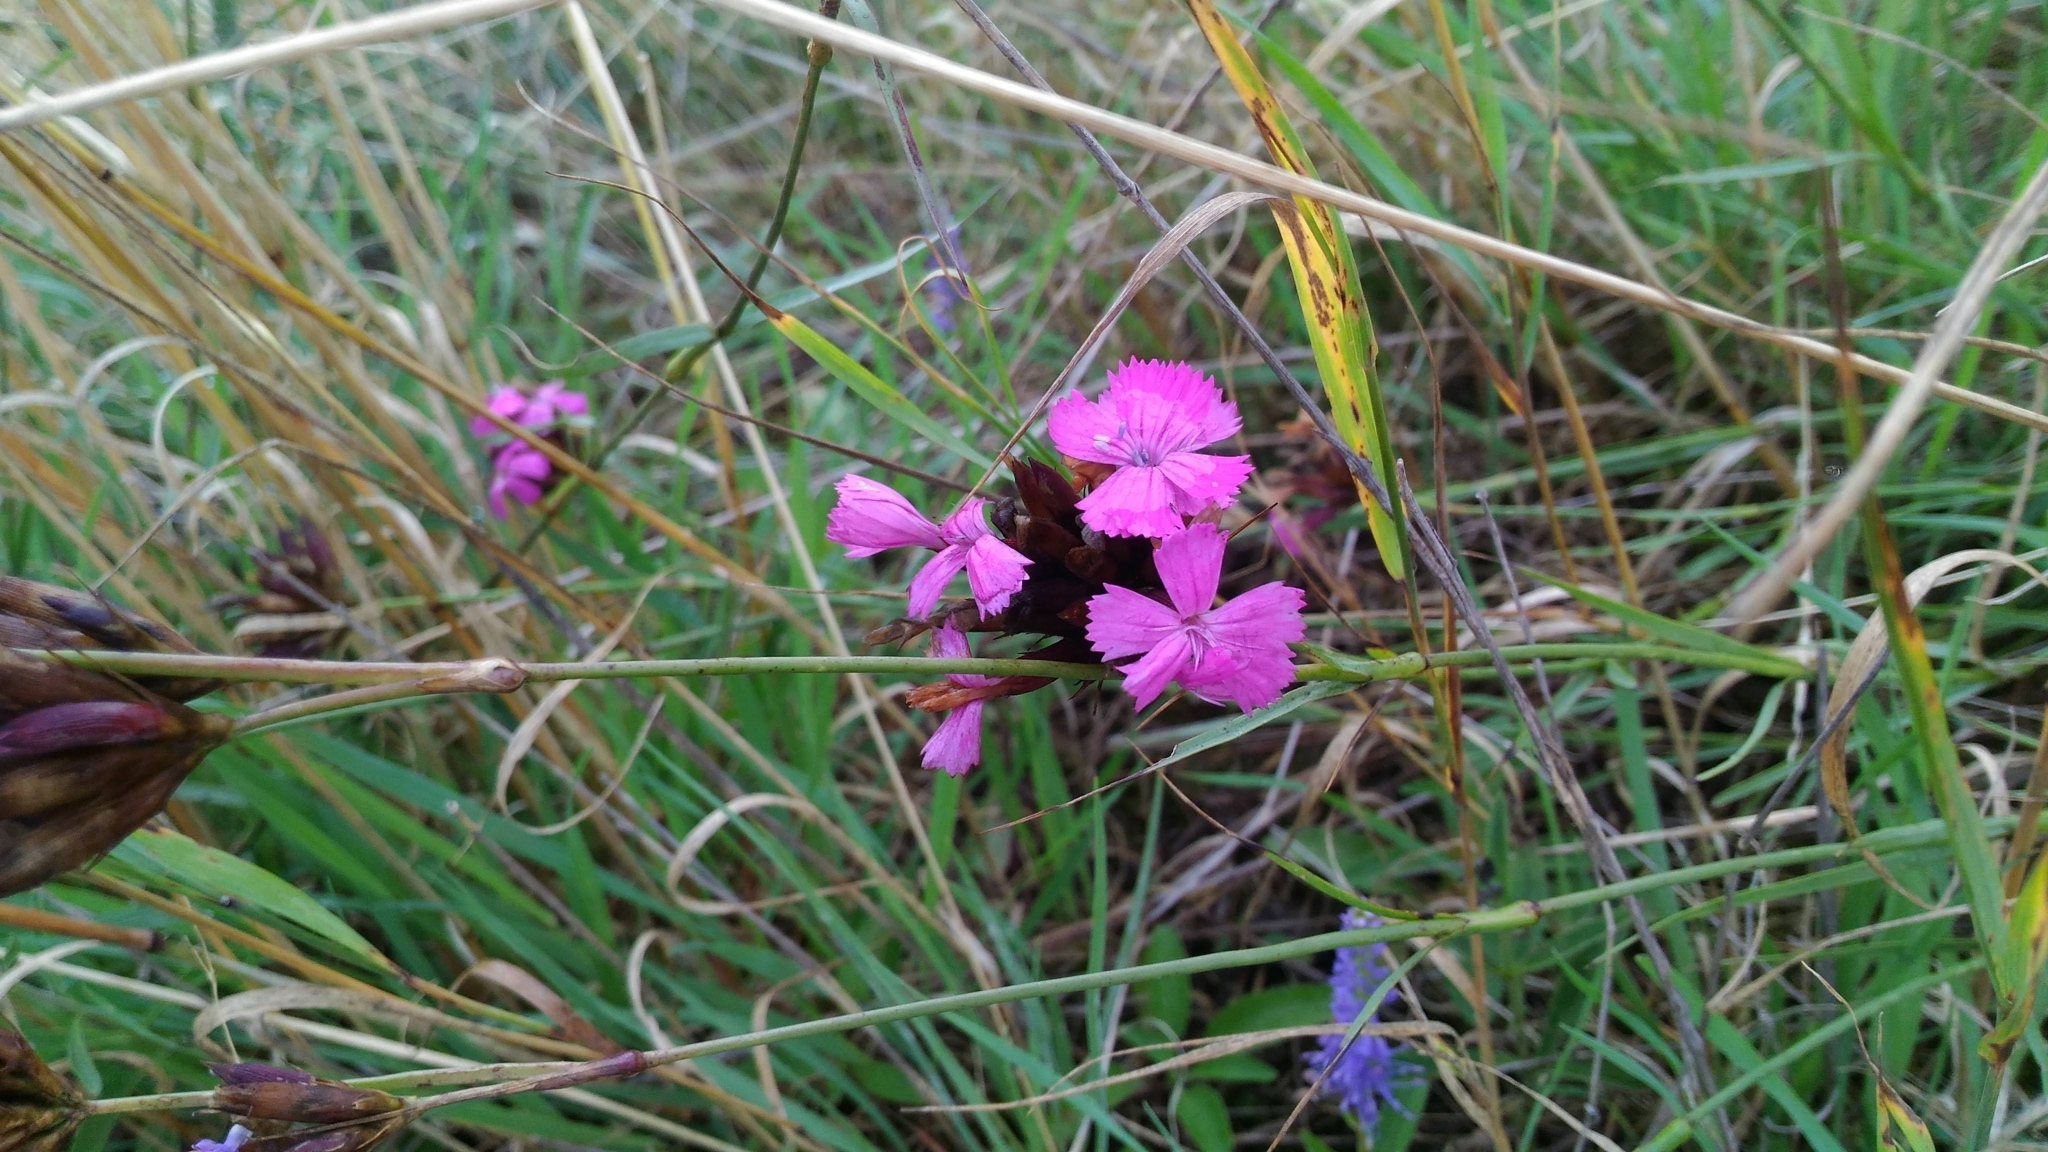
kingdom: Plantae
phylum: Tracheophyta
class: Magnoliopsida
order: Caryophyllales
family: Caryophyllaceae
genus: Dianthus
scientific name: Dianthus carthusianorum
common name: Carthusian pink
